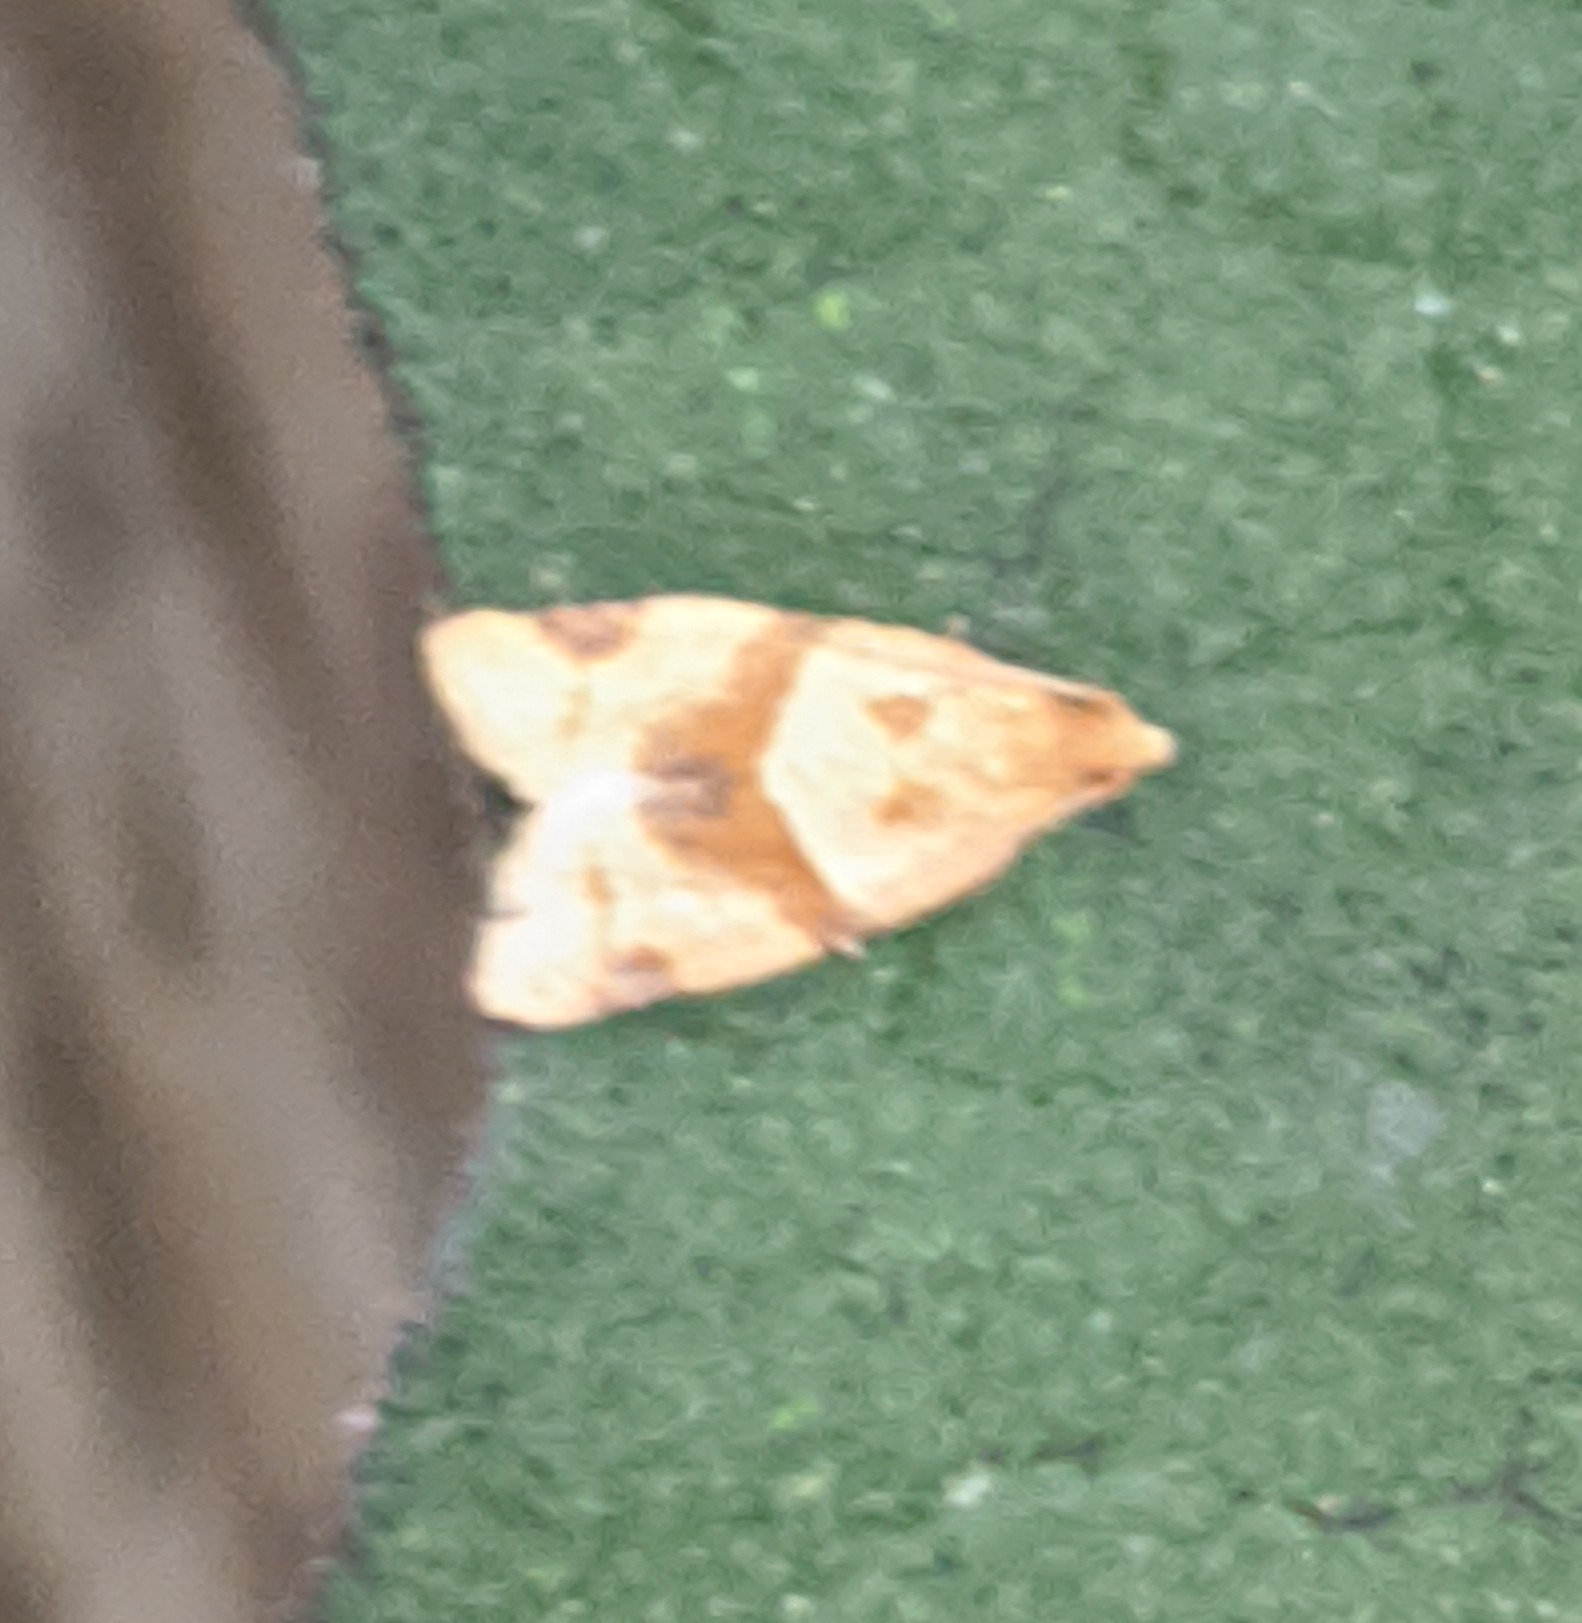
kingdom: Animalia
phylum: Arthropoda
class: Insecta
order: Lepidoptera
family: Tortricidae
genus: Clepsis
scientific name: Clepsis peritana
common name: Garden tortrix
